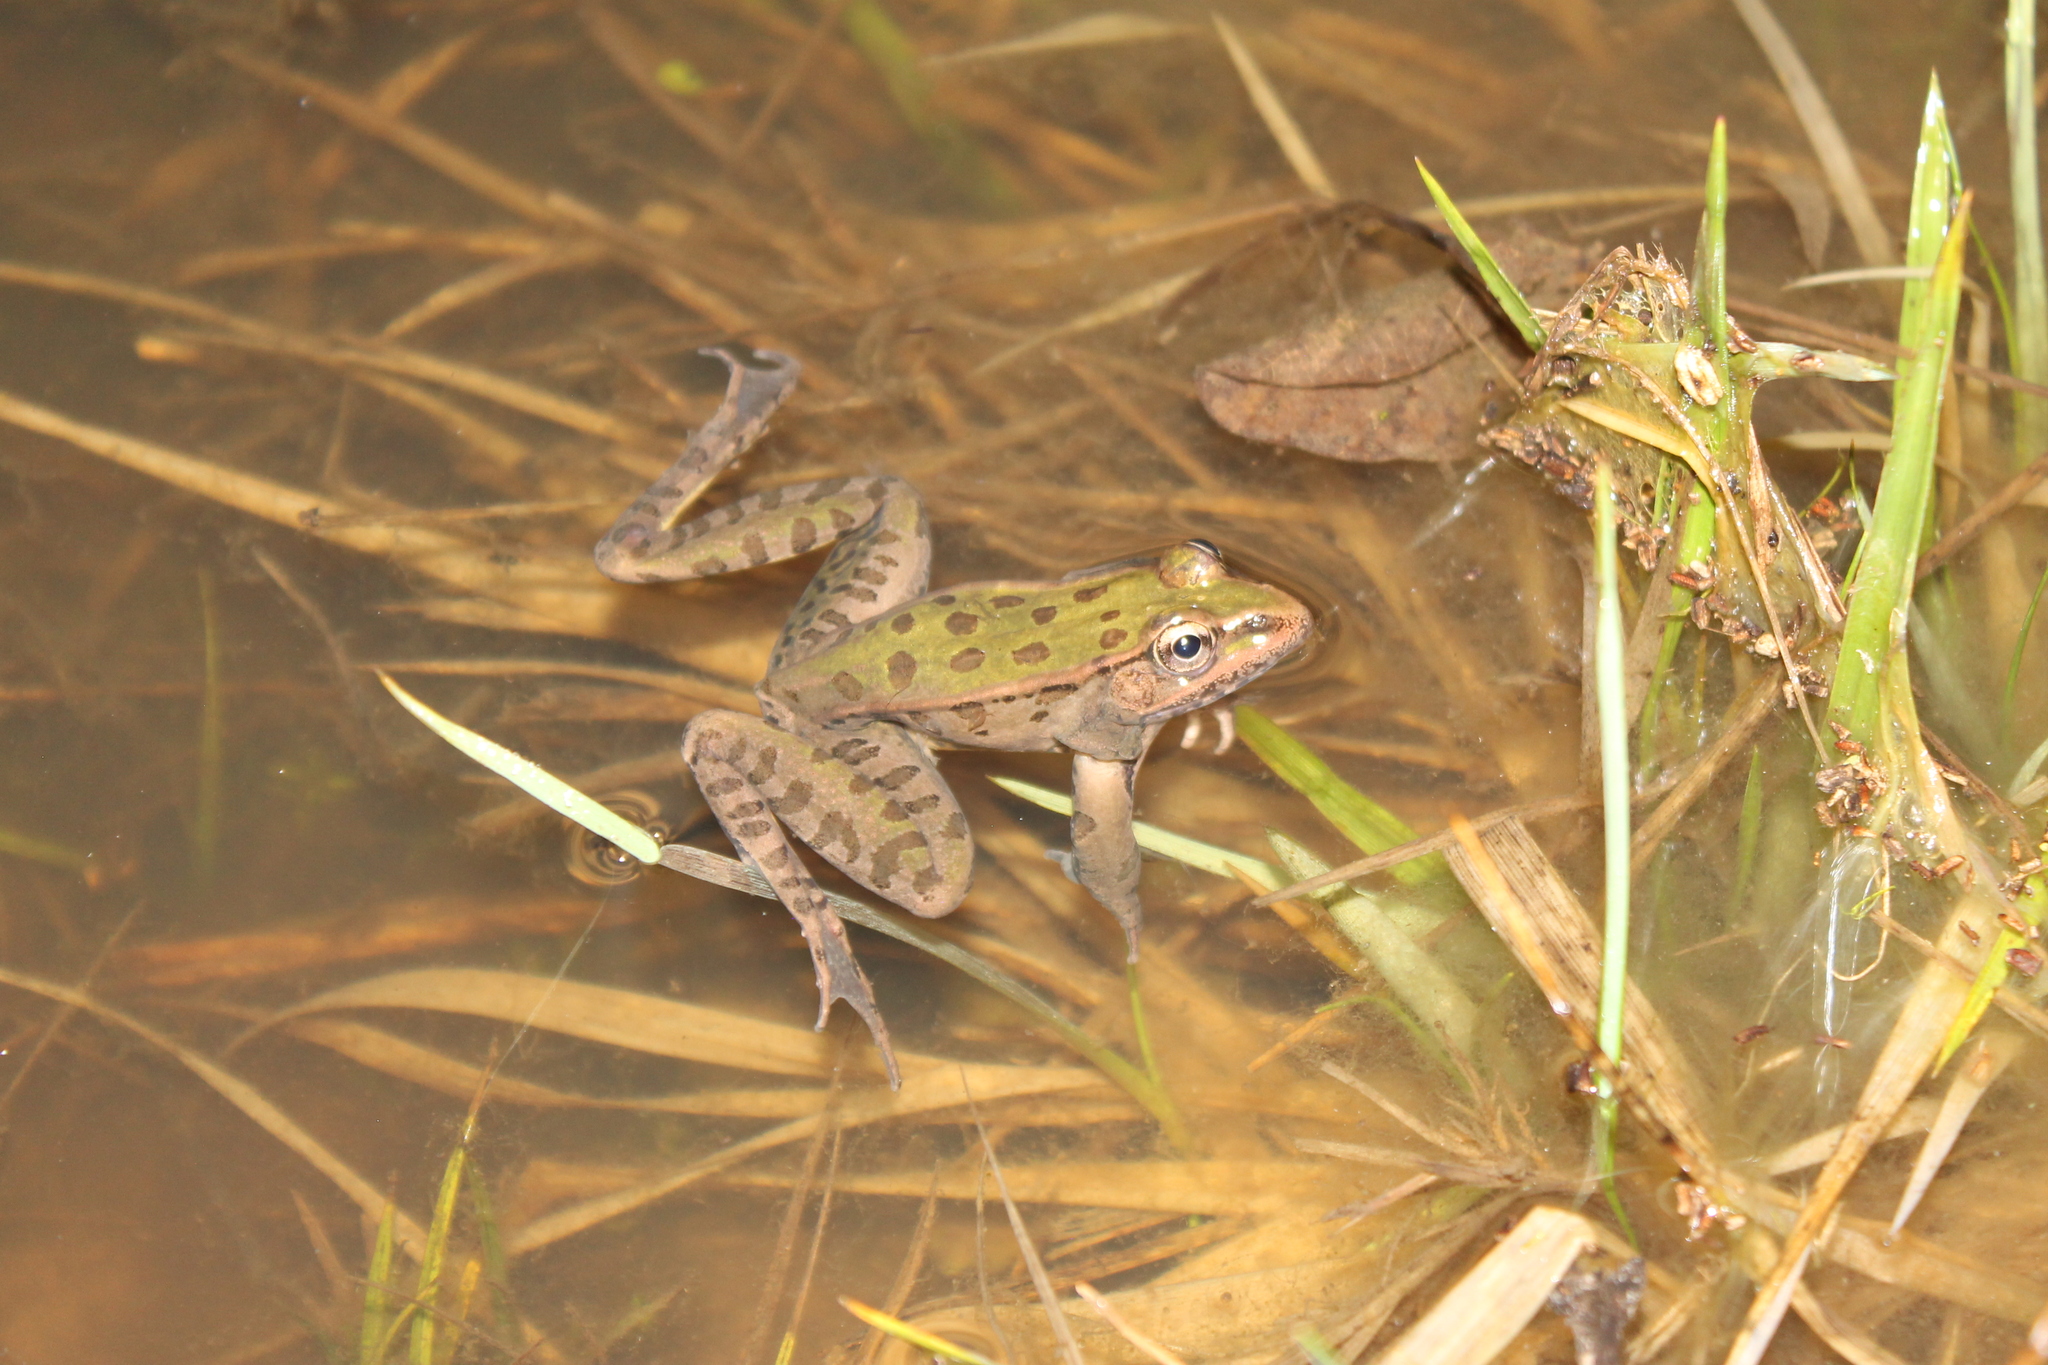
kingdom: Animalia
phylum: Chordata
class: Amphibia
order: Anura
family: Ranidae
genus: Lithobates
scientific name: Lithobates sphenocephalus
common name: Southern leopard frog
